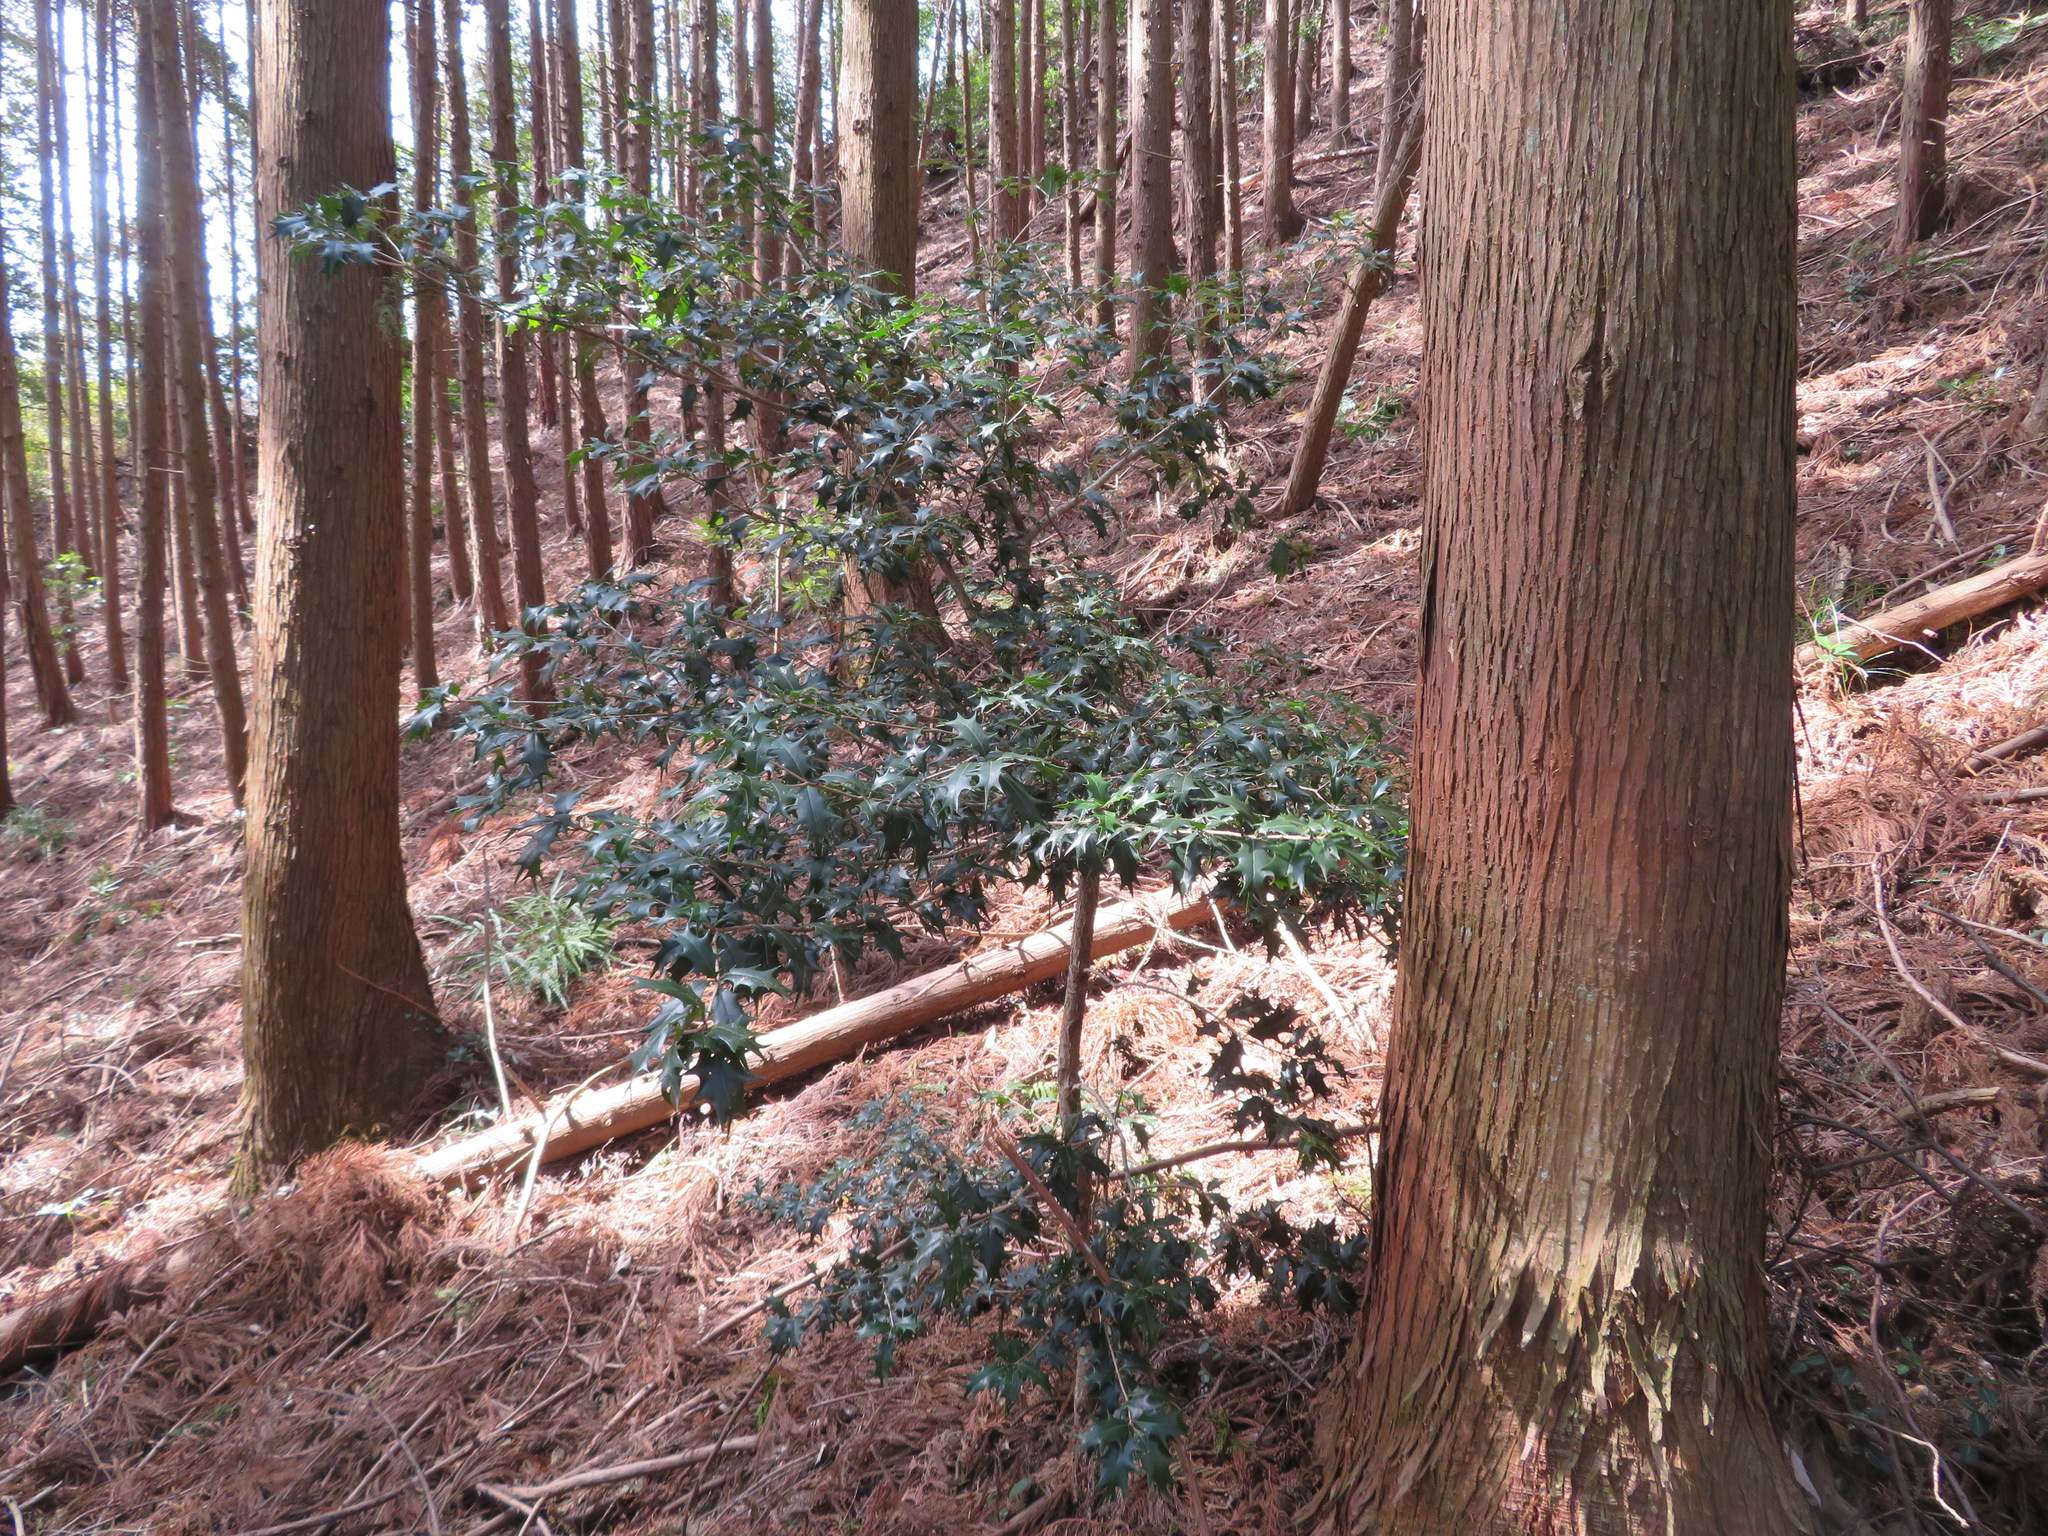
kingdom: Plantae
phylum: Tracheophyta
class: Magnoliopsida
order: Lamiales
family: Oleaceae
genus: Osmanthus
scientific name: Osmanthus heterophyllus
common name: Holly osmanthus
